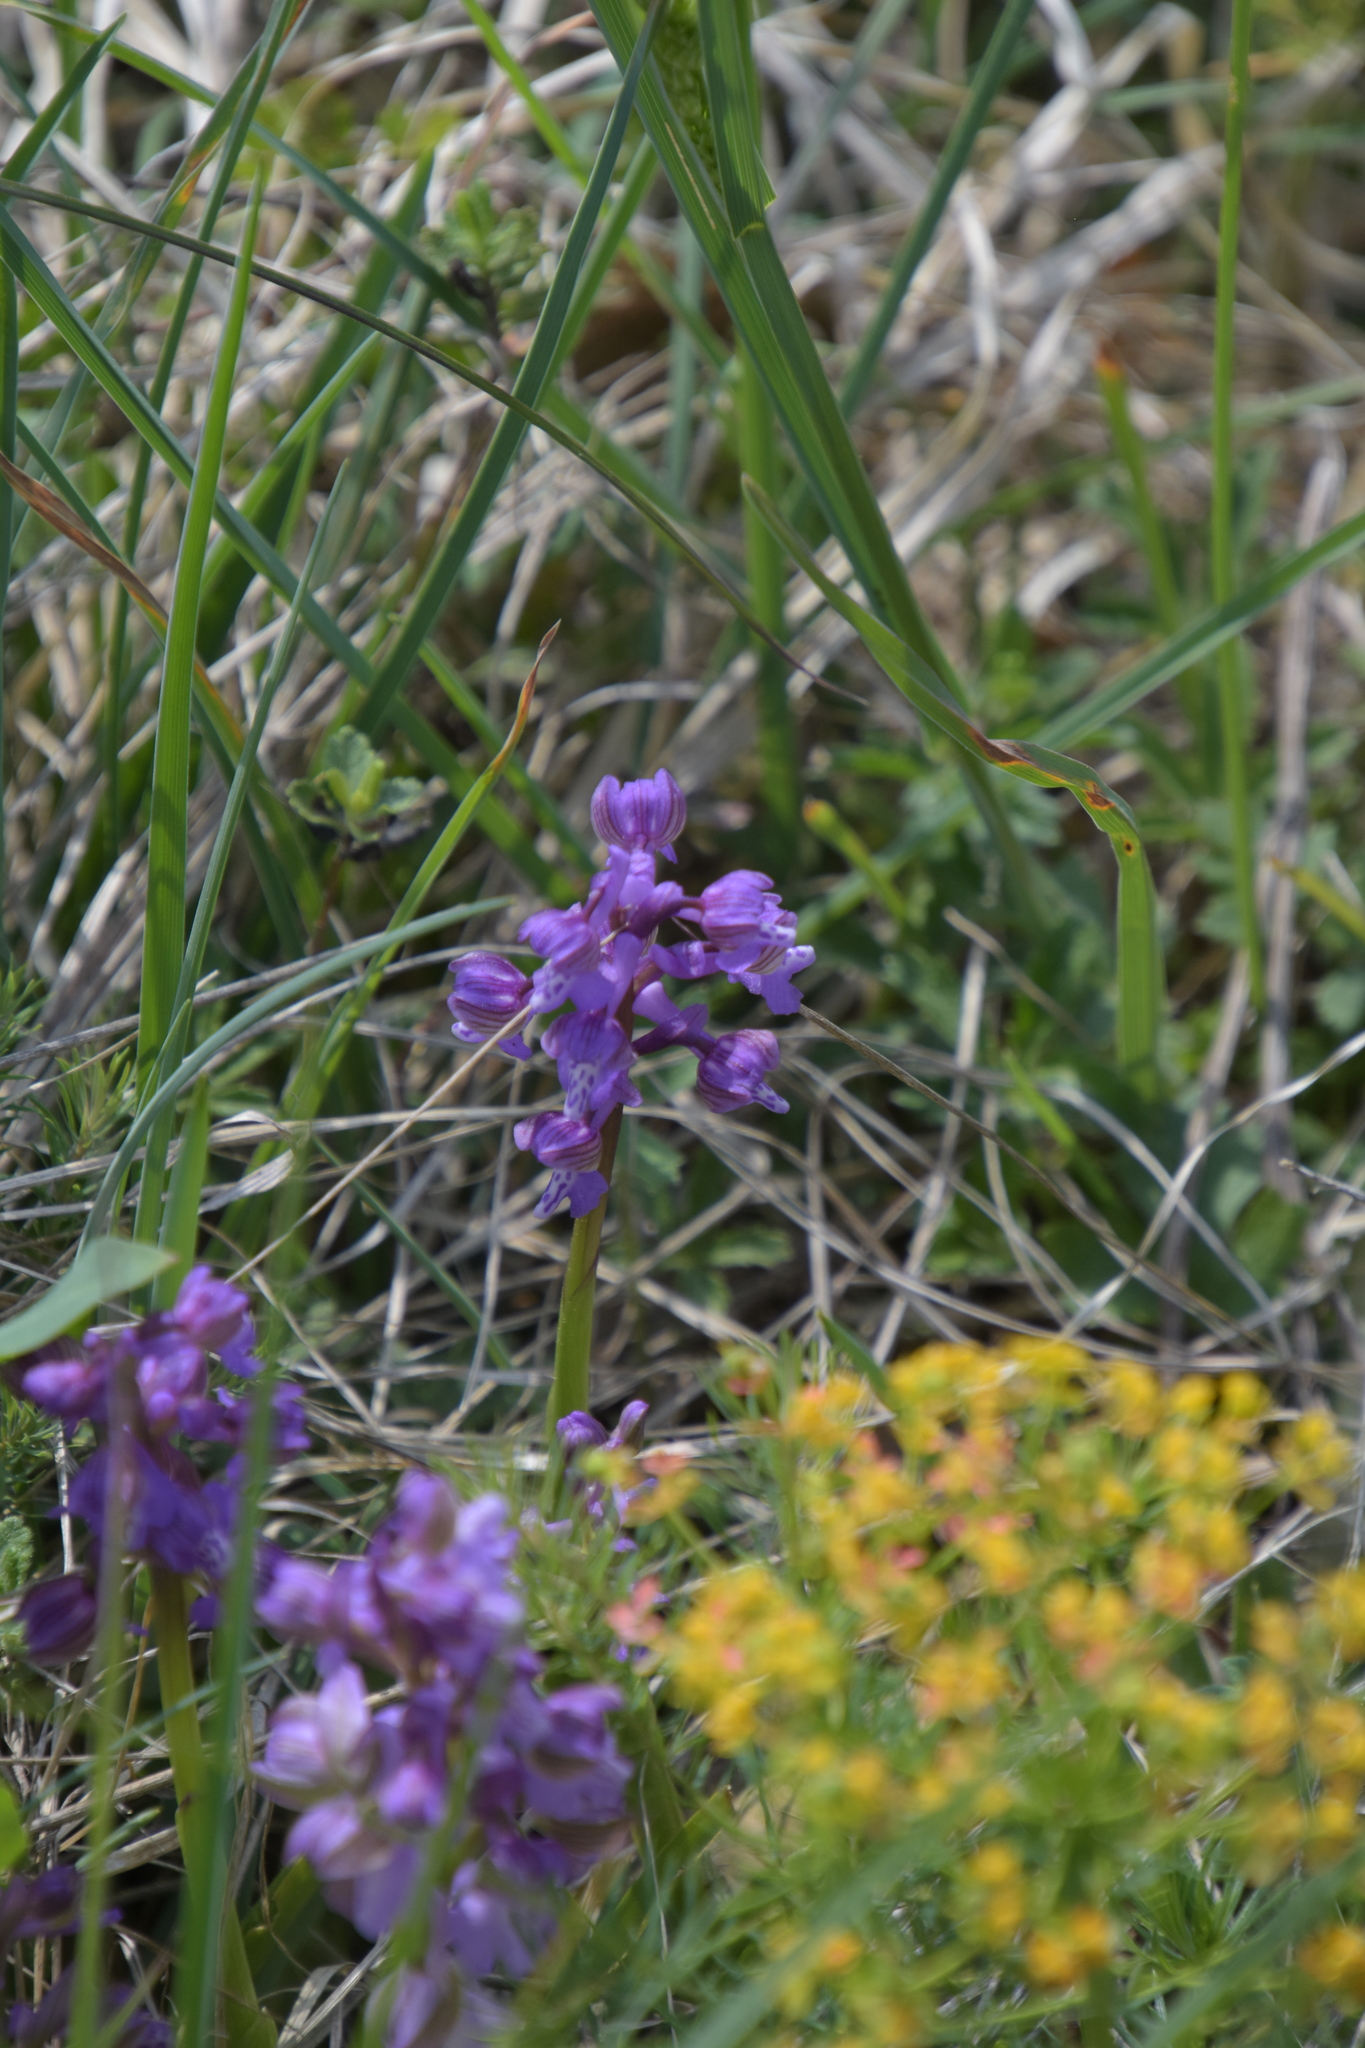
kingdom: Plantae
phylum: Tracheophyta
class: Liliopsida
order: Asparagales
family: Orchidaceae
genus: Anacamptis
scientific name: Anacamptis morio
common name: Green-winged orchid
